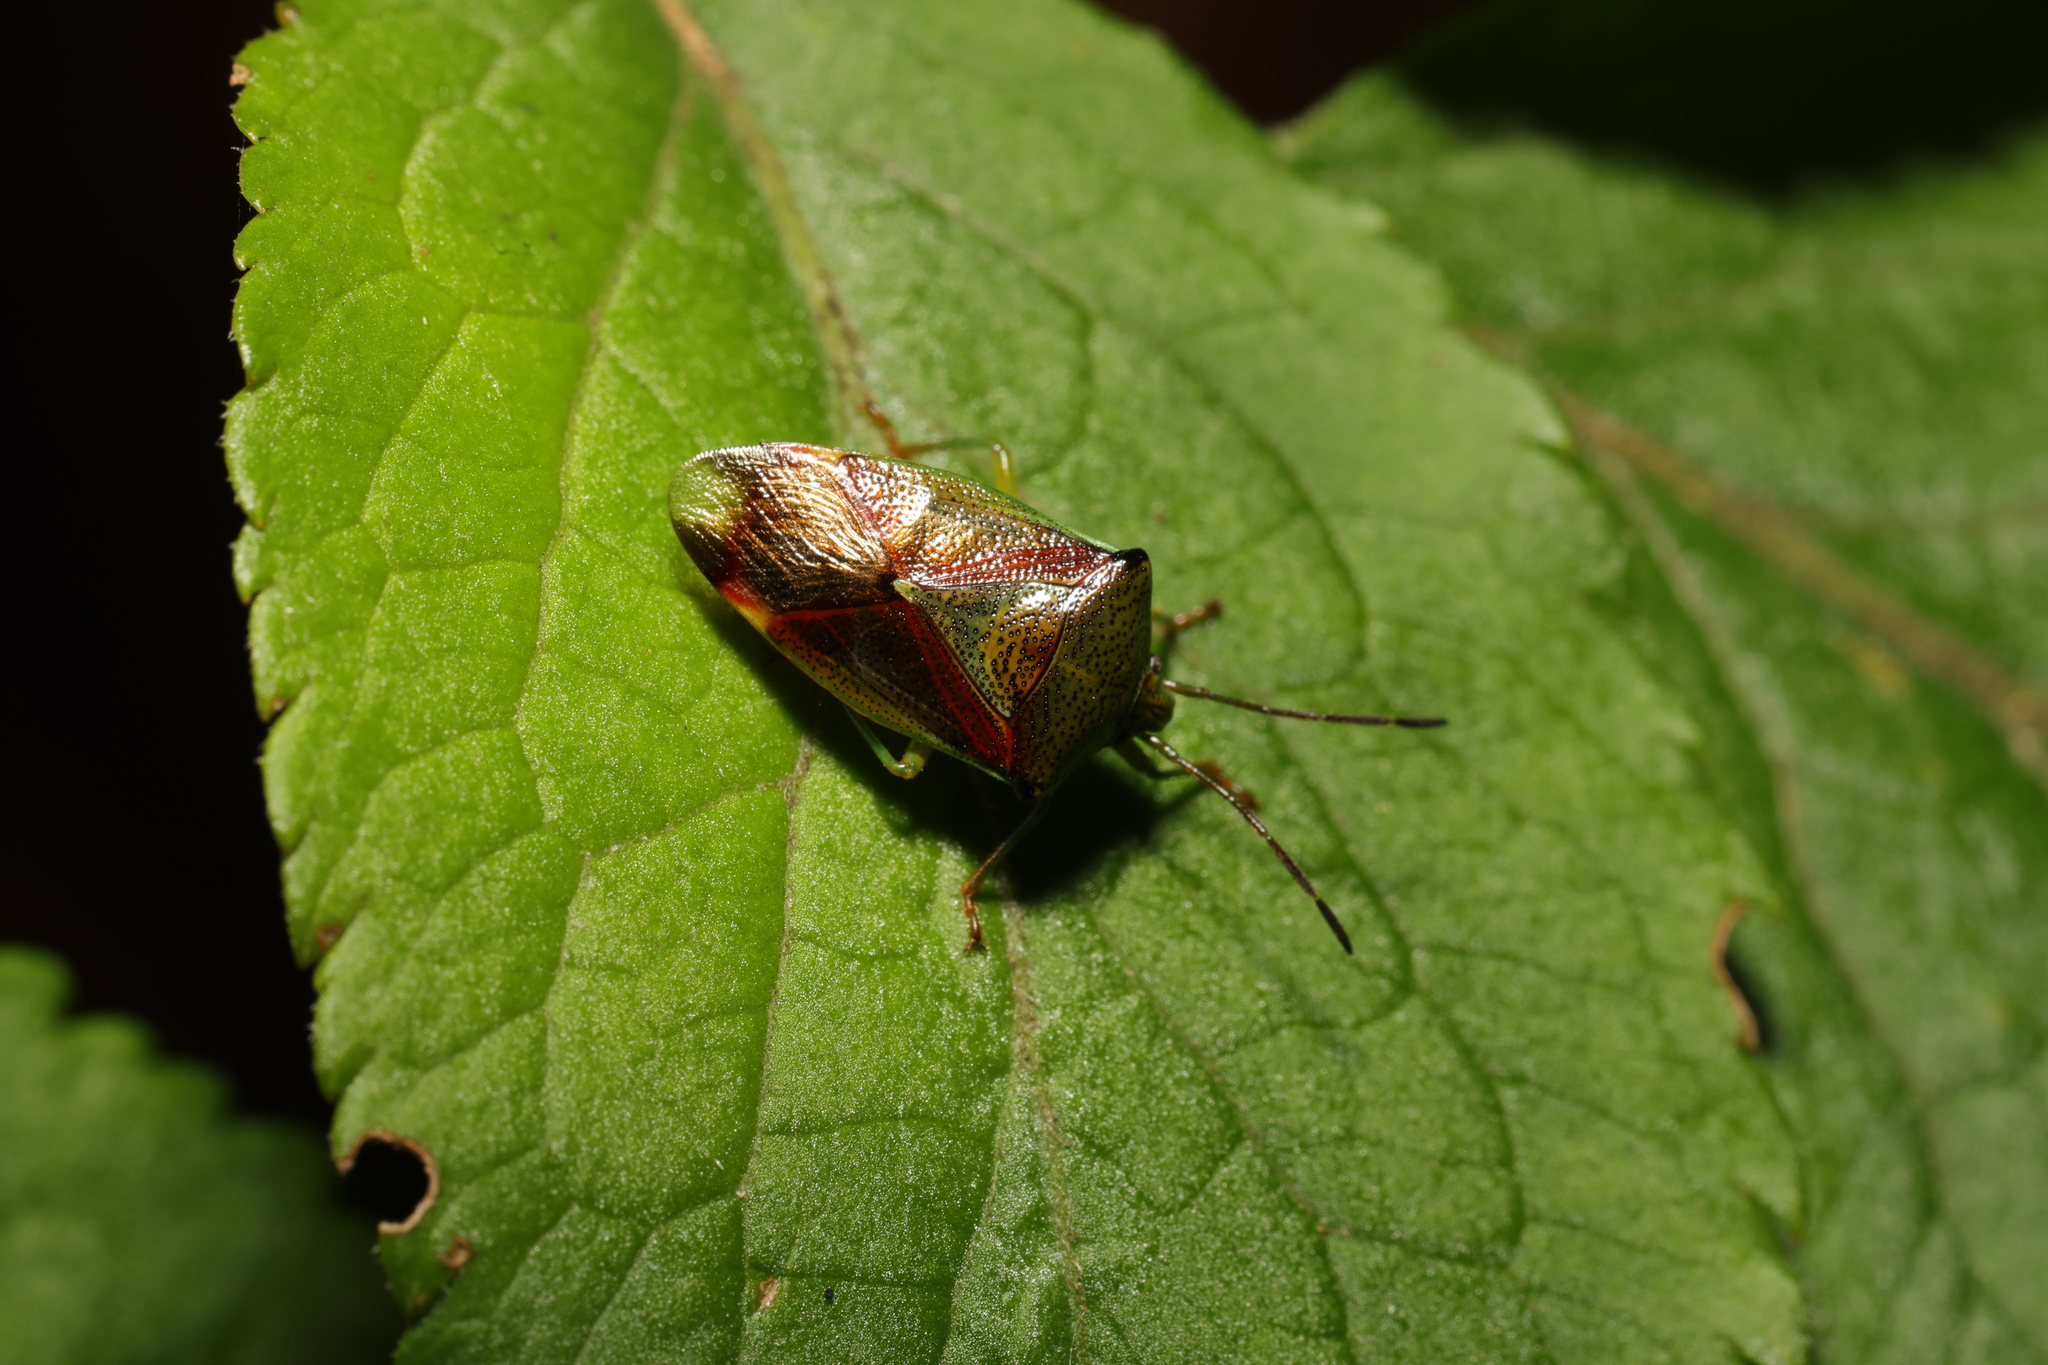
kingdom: Animalia
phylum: Arthropoda
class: Insecta
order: Hemiptera
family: Acanthosomatidae
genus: Elasmostethus
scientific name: Elasmostethus interstinctus
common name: Birch shieldbug
